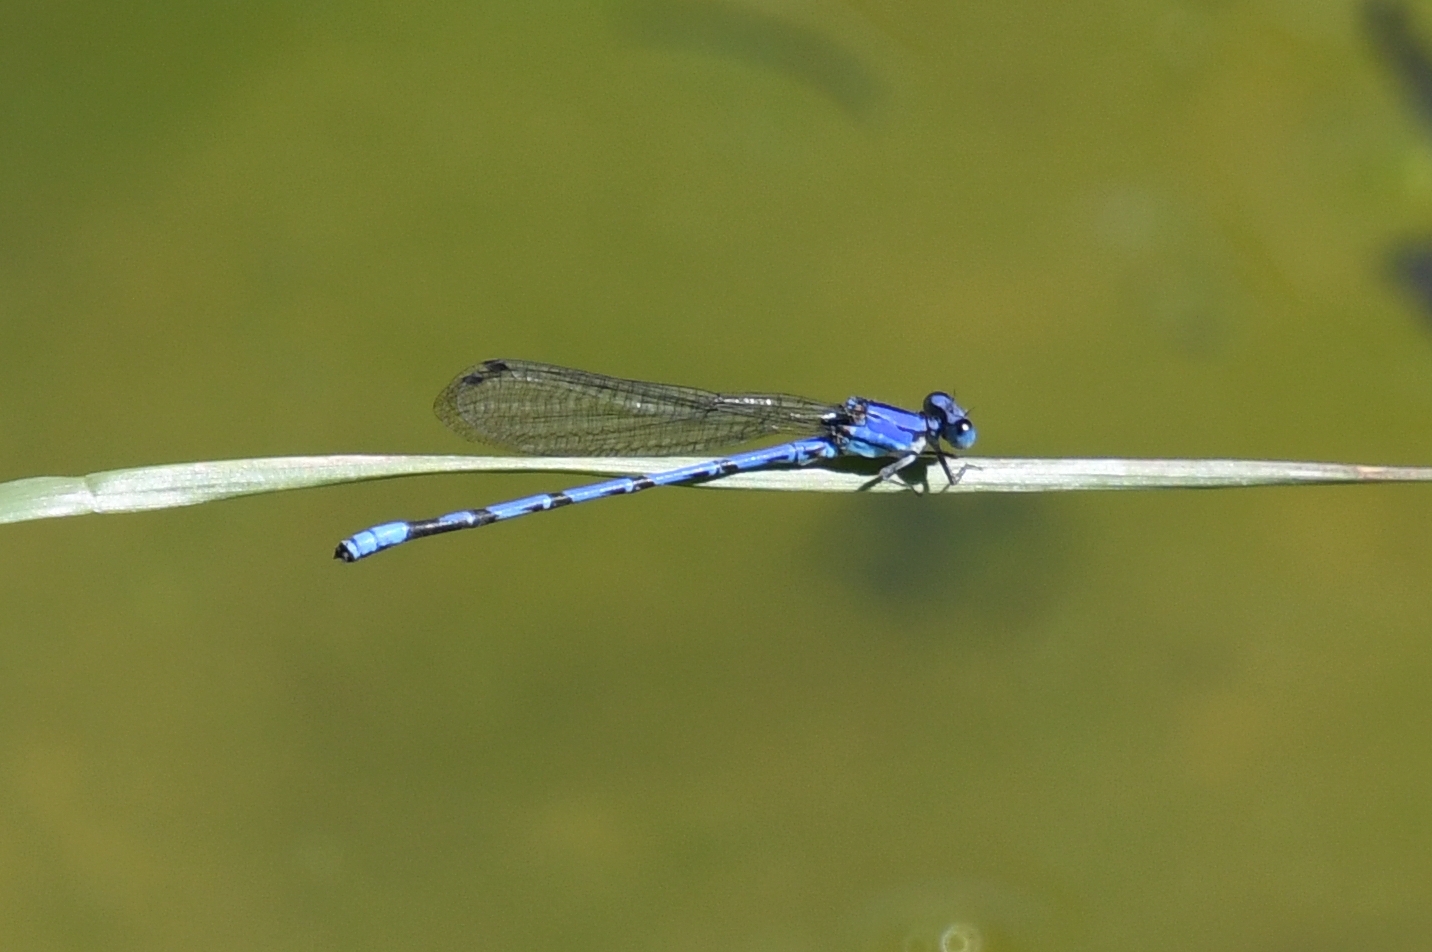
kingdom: Animalia
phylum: Arthropoda
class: Insecta
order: Odonata
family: Coenagrionidae
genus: Argia
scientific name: Argia extranea
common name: Spine-tipped dancer
